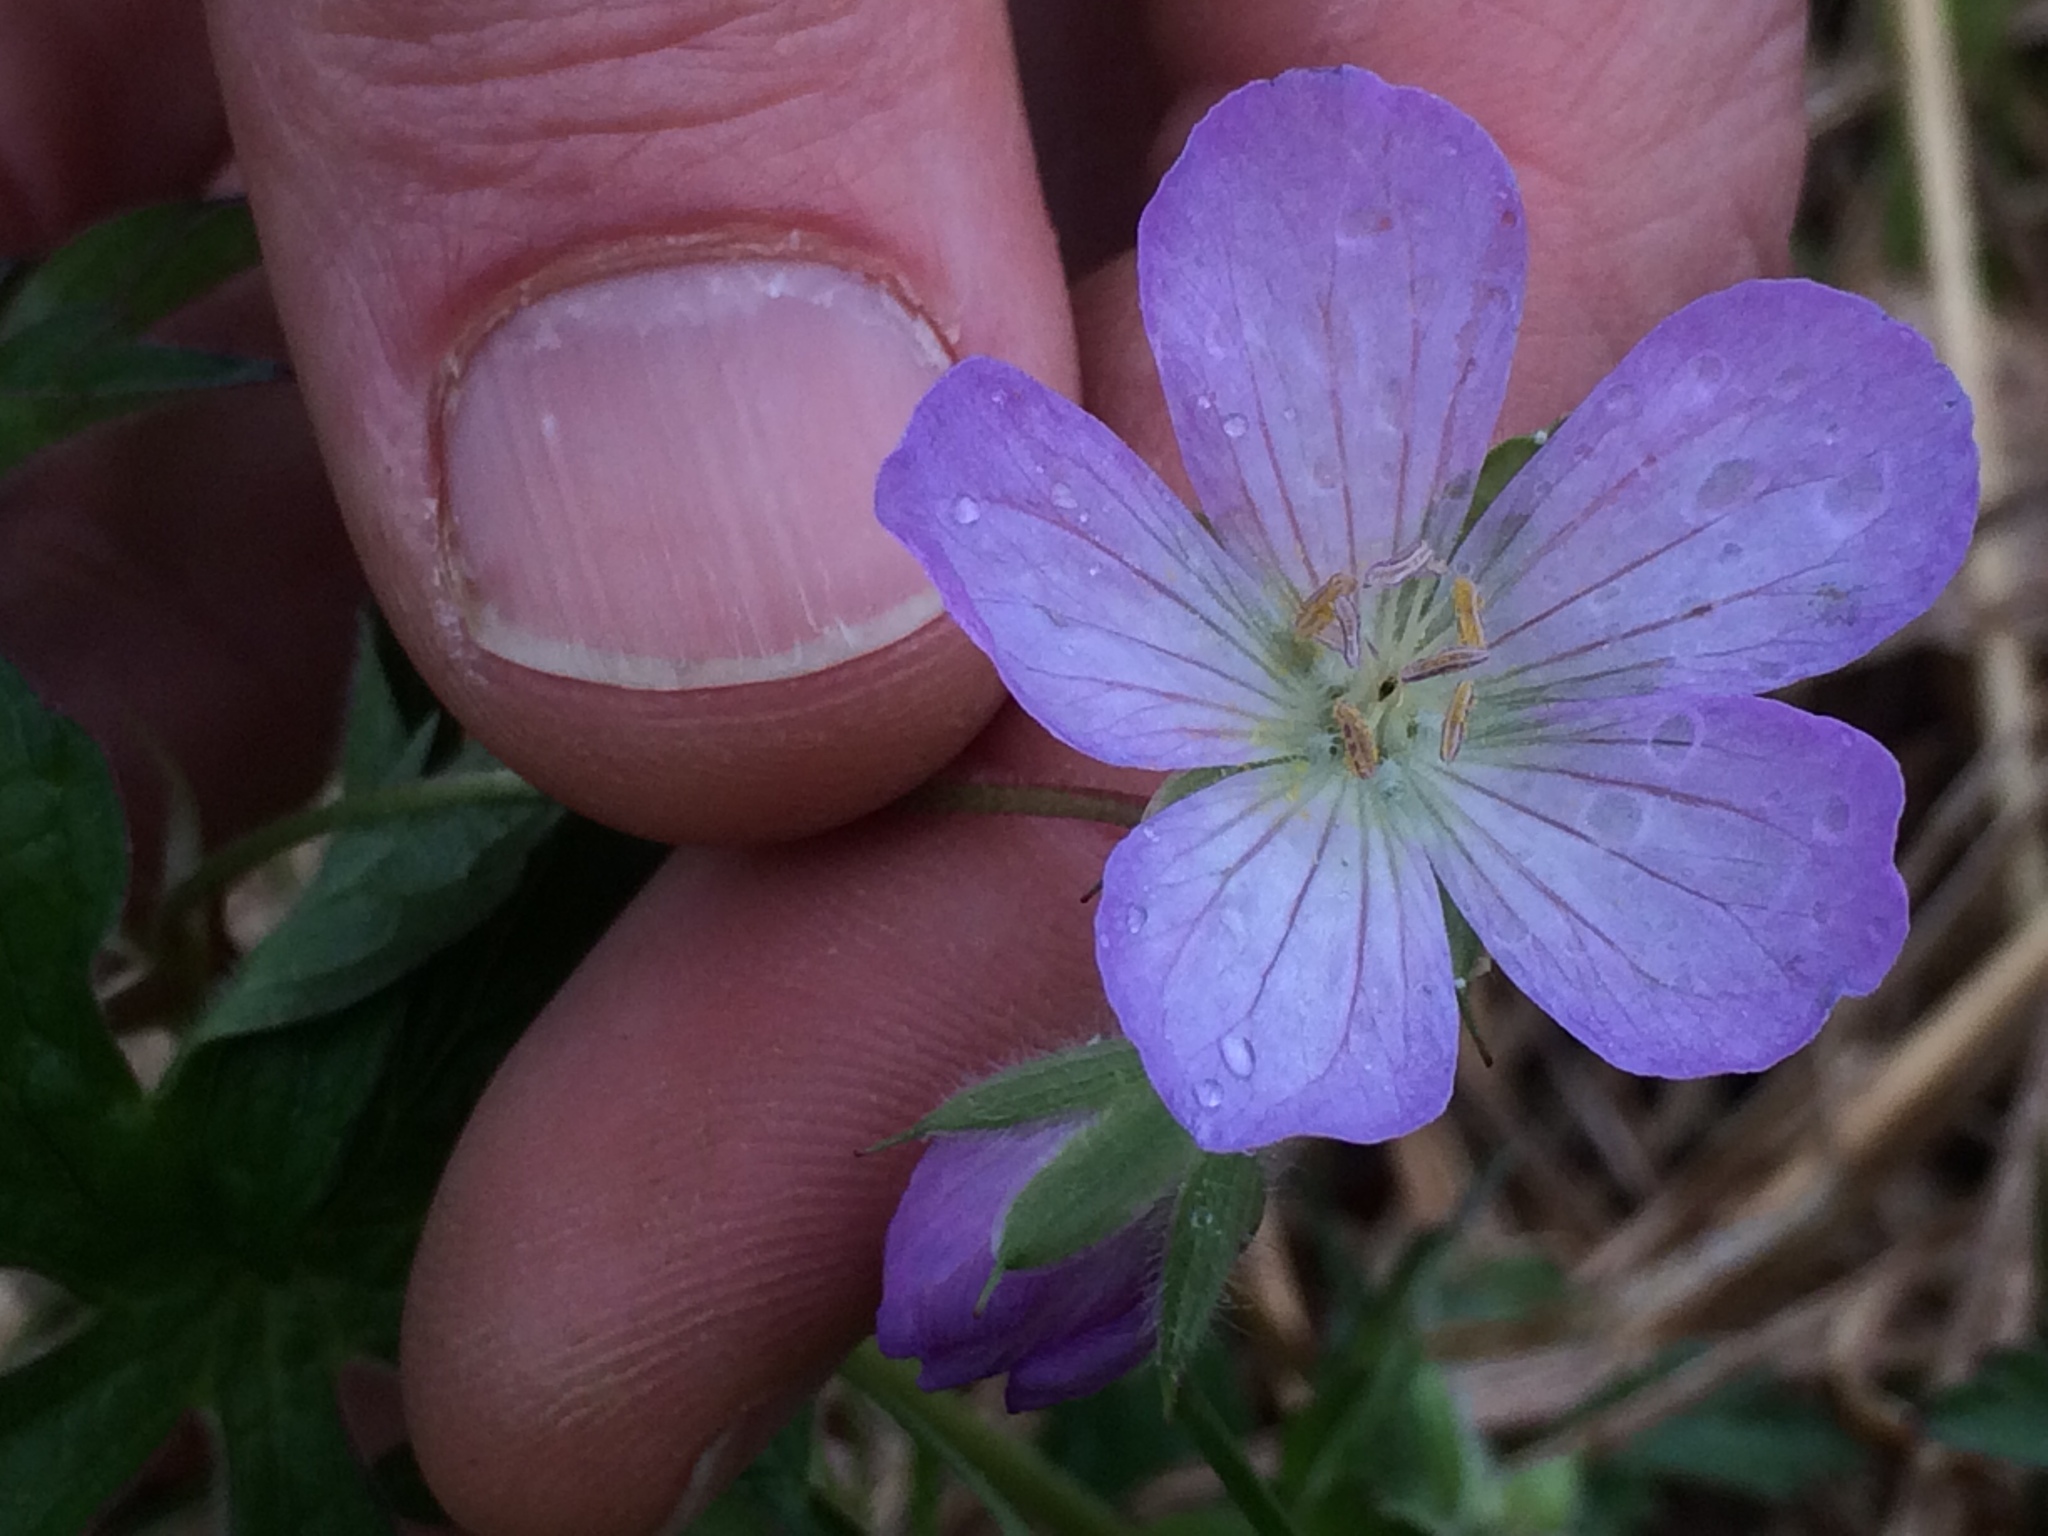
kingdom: Plantae
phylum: Tracheophyta
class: Magnoliopsida
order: Geraniales
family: Geraniaceae
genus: Geranium
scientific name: Geranium maculatum
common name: Spotted geranium
